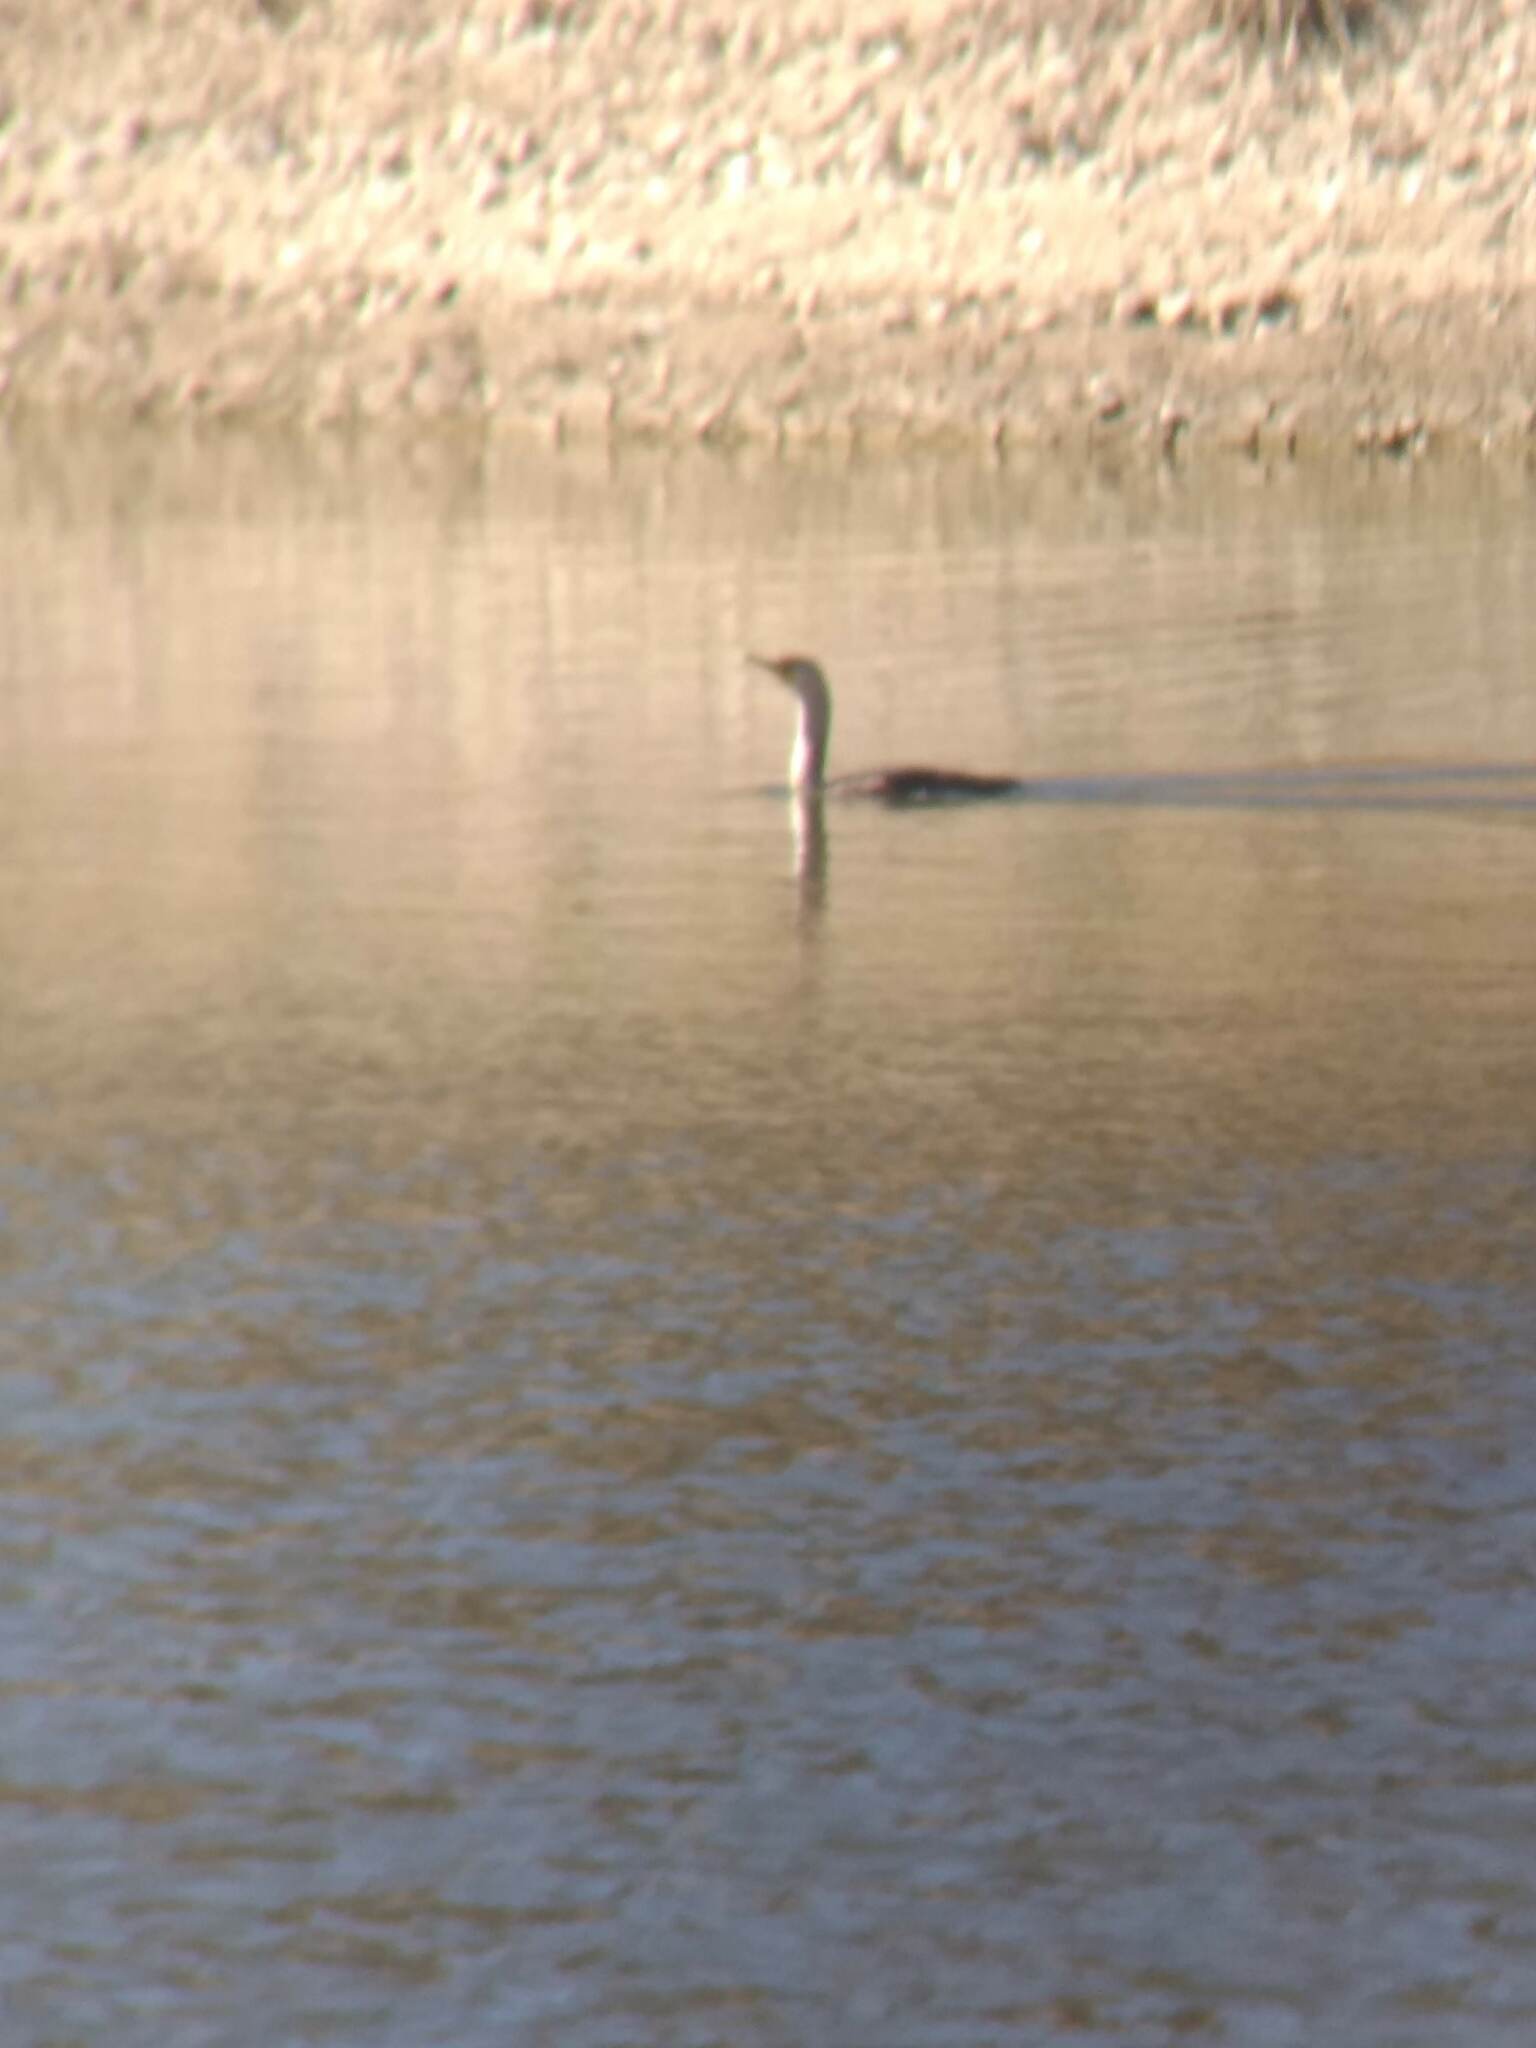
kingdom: Animalia
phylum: Chordata
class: Aves
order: Suliformes
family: Phalacrocoracidae
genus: Phalacrocorax
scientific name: Phalacrocorax auritus
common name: Double-crested cormorant
